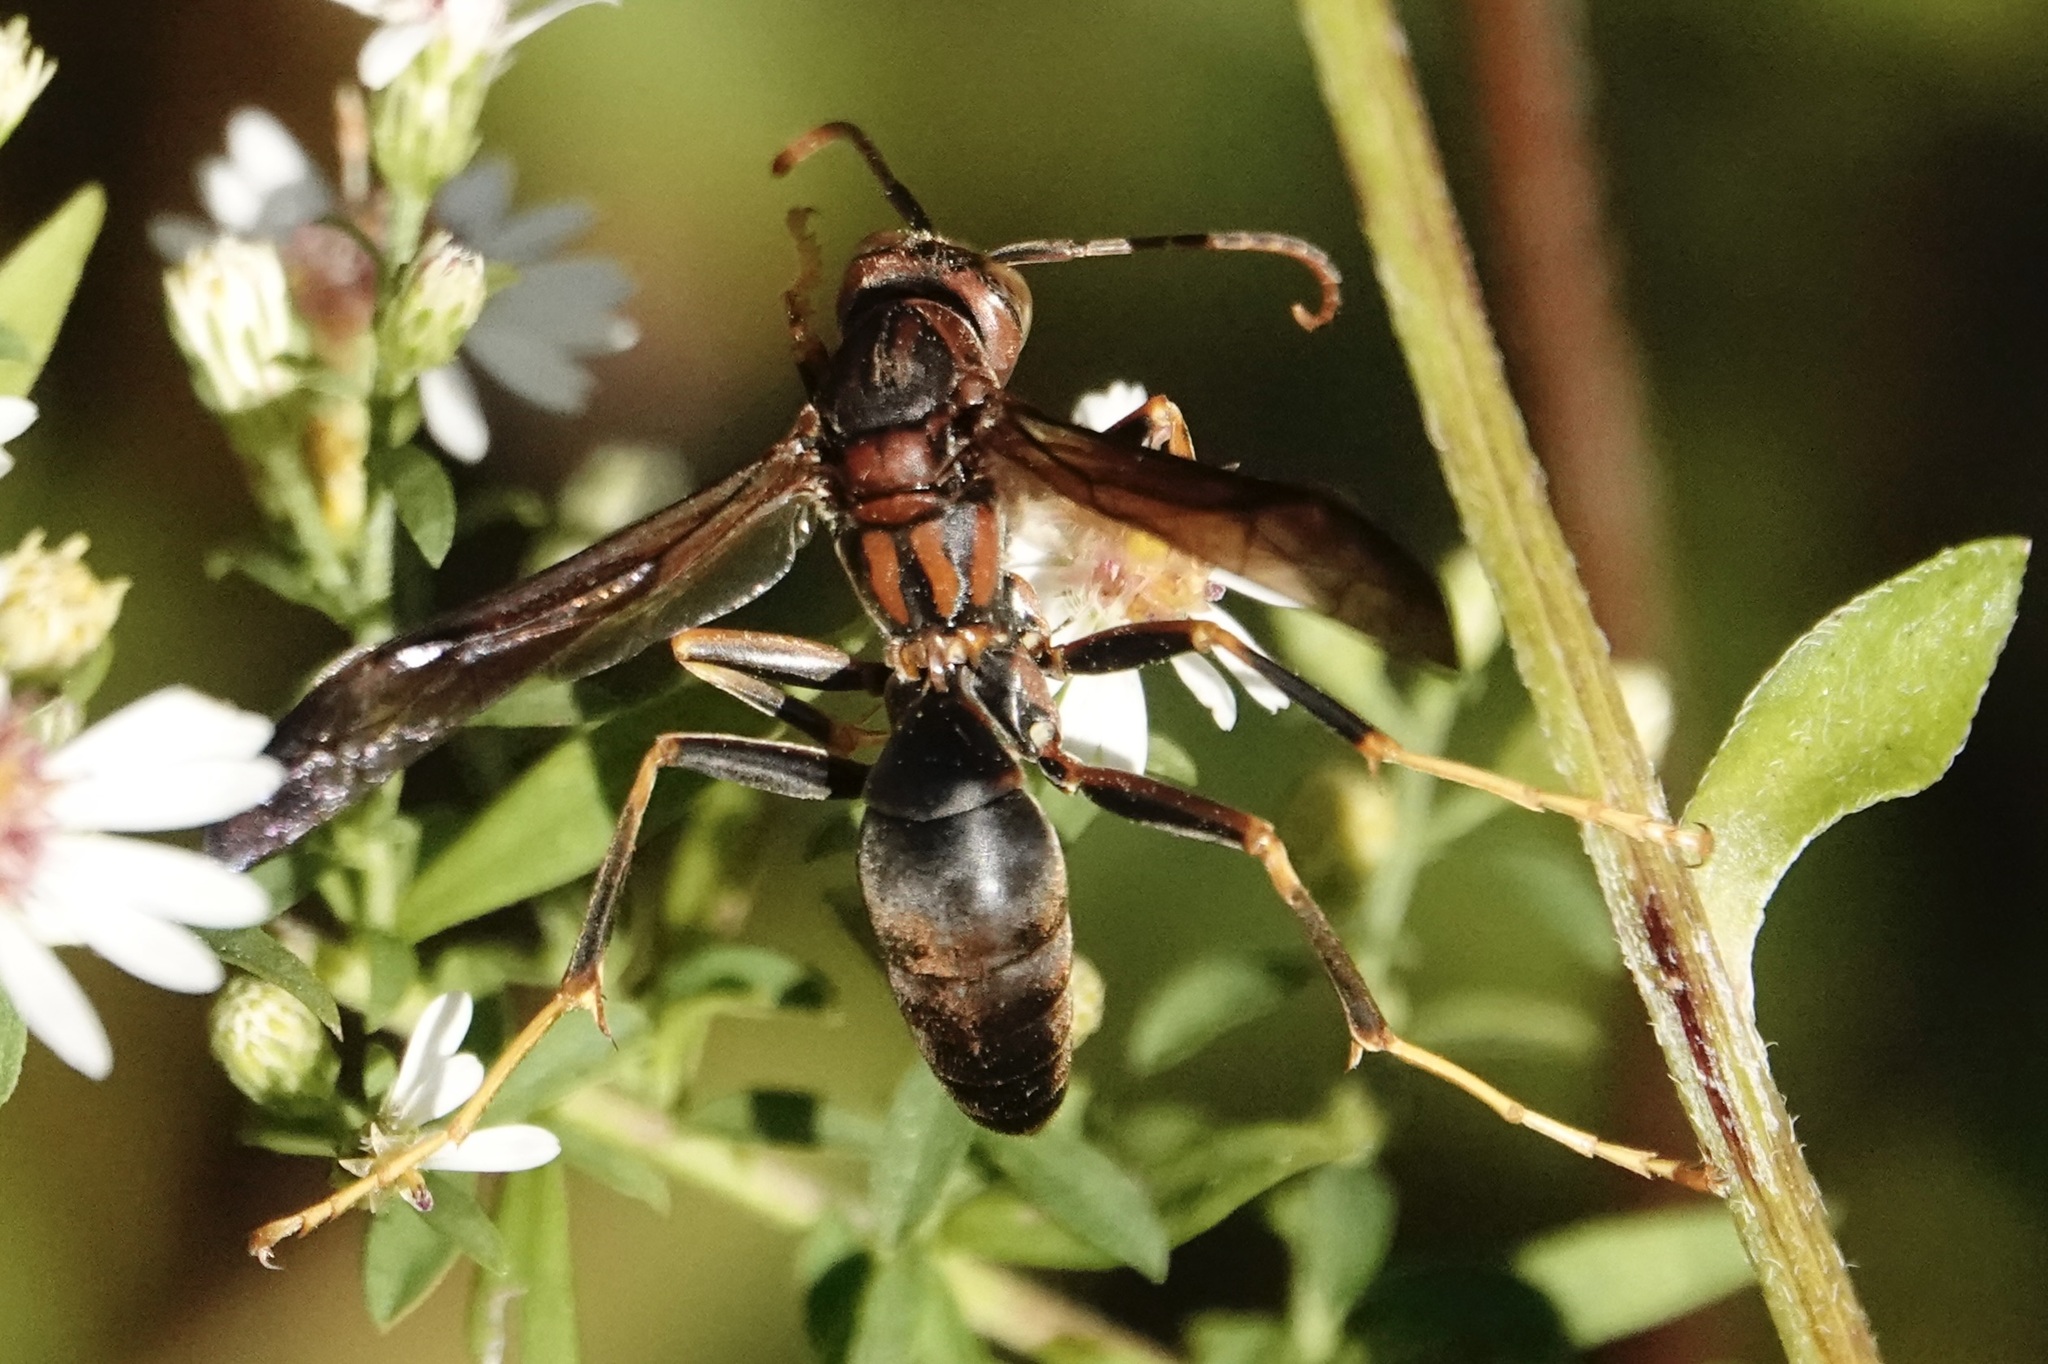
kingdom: Animalia
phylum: Arthropoda
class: Insecta
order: Hymenoptera
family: Eumenidae
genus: Polistes
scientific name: Polistes metricus
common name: Metric paper wasp
